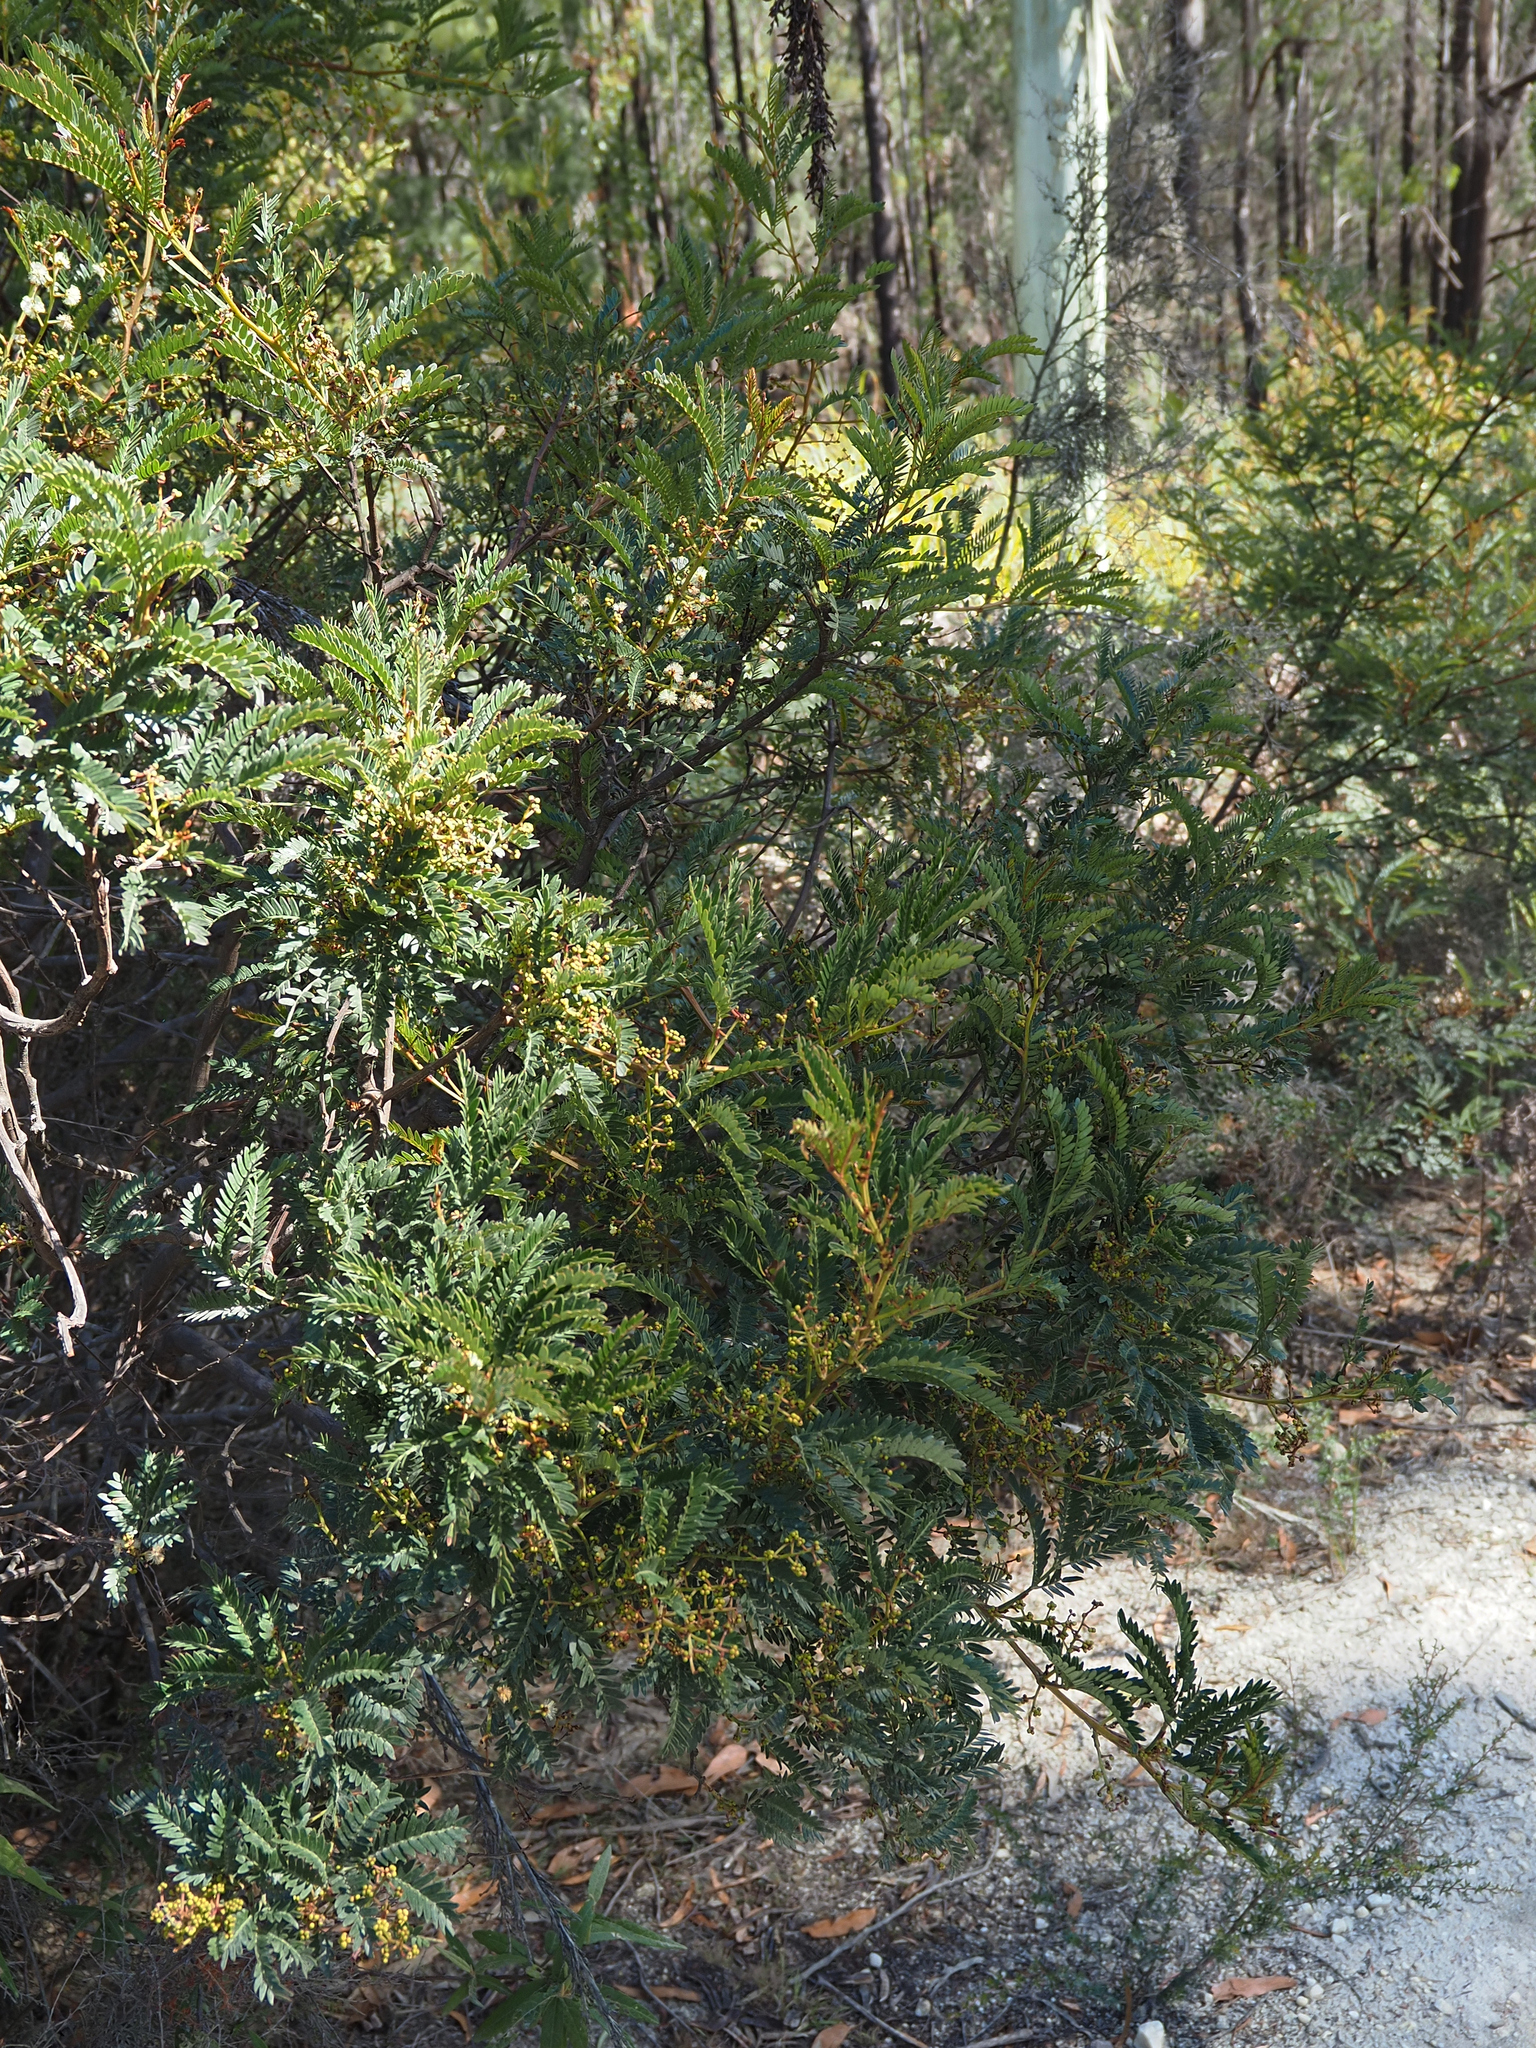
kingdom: Plantae
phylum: Tracheophyta
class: Magnoliopsida
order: Fabales
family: Fabaceae
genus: Acacia
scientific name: Acacia terminalis
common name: Cedar wattle
